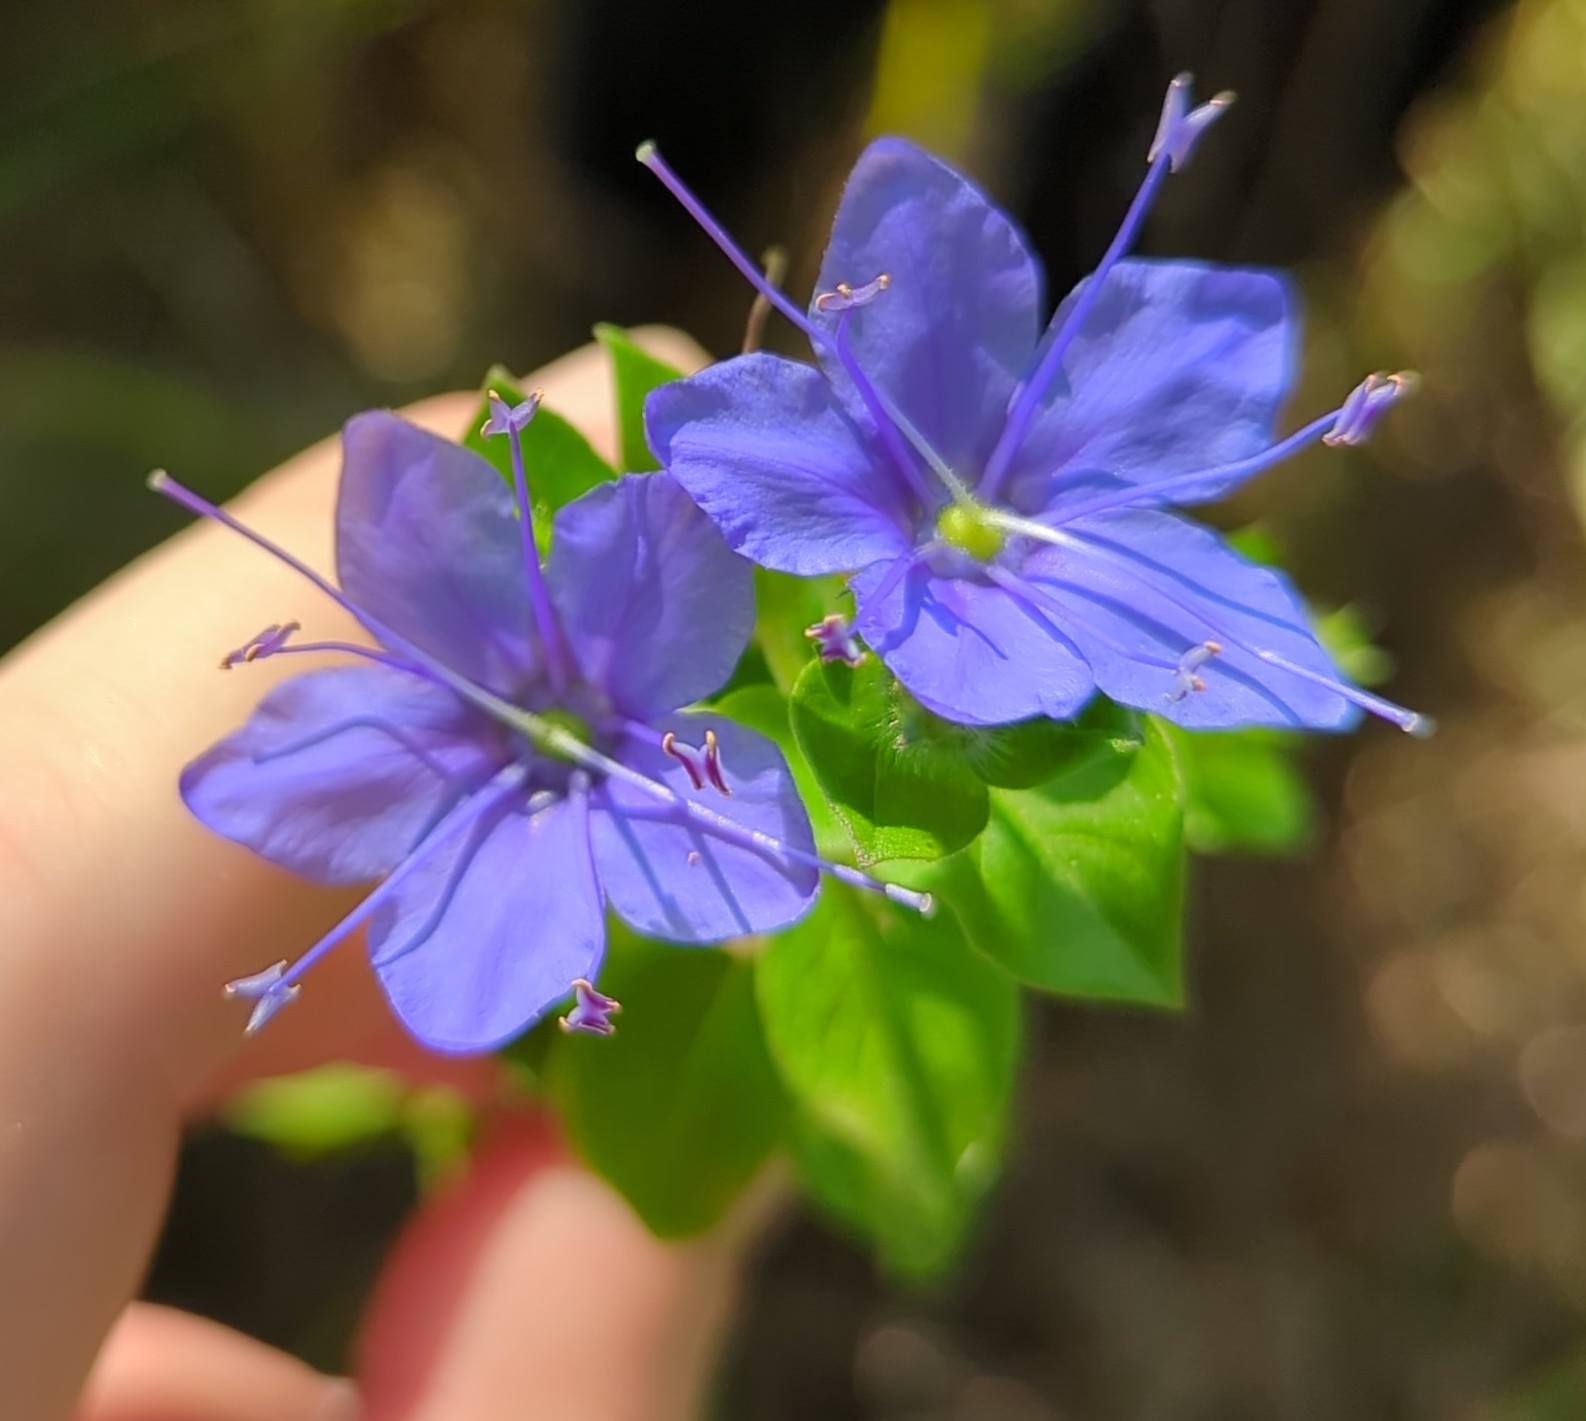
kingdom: Plantae
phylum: Tracheophyta
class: Magnoliopsida
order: Solanales
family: Hydroleaceae
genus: Hydrolea
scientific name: Hydrolea ovata
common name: Ovate false fiddleleaf
